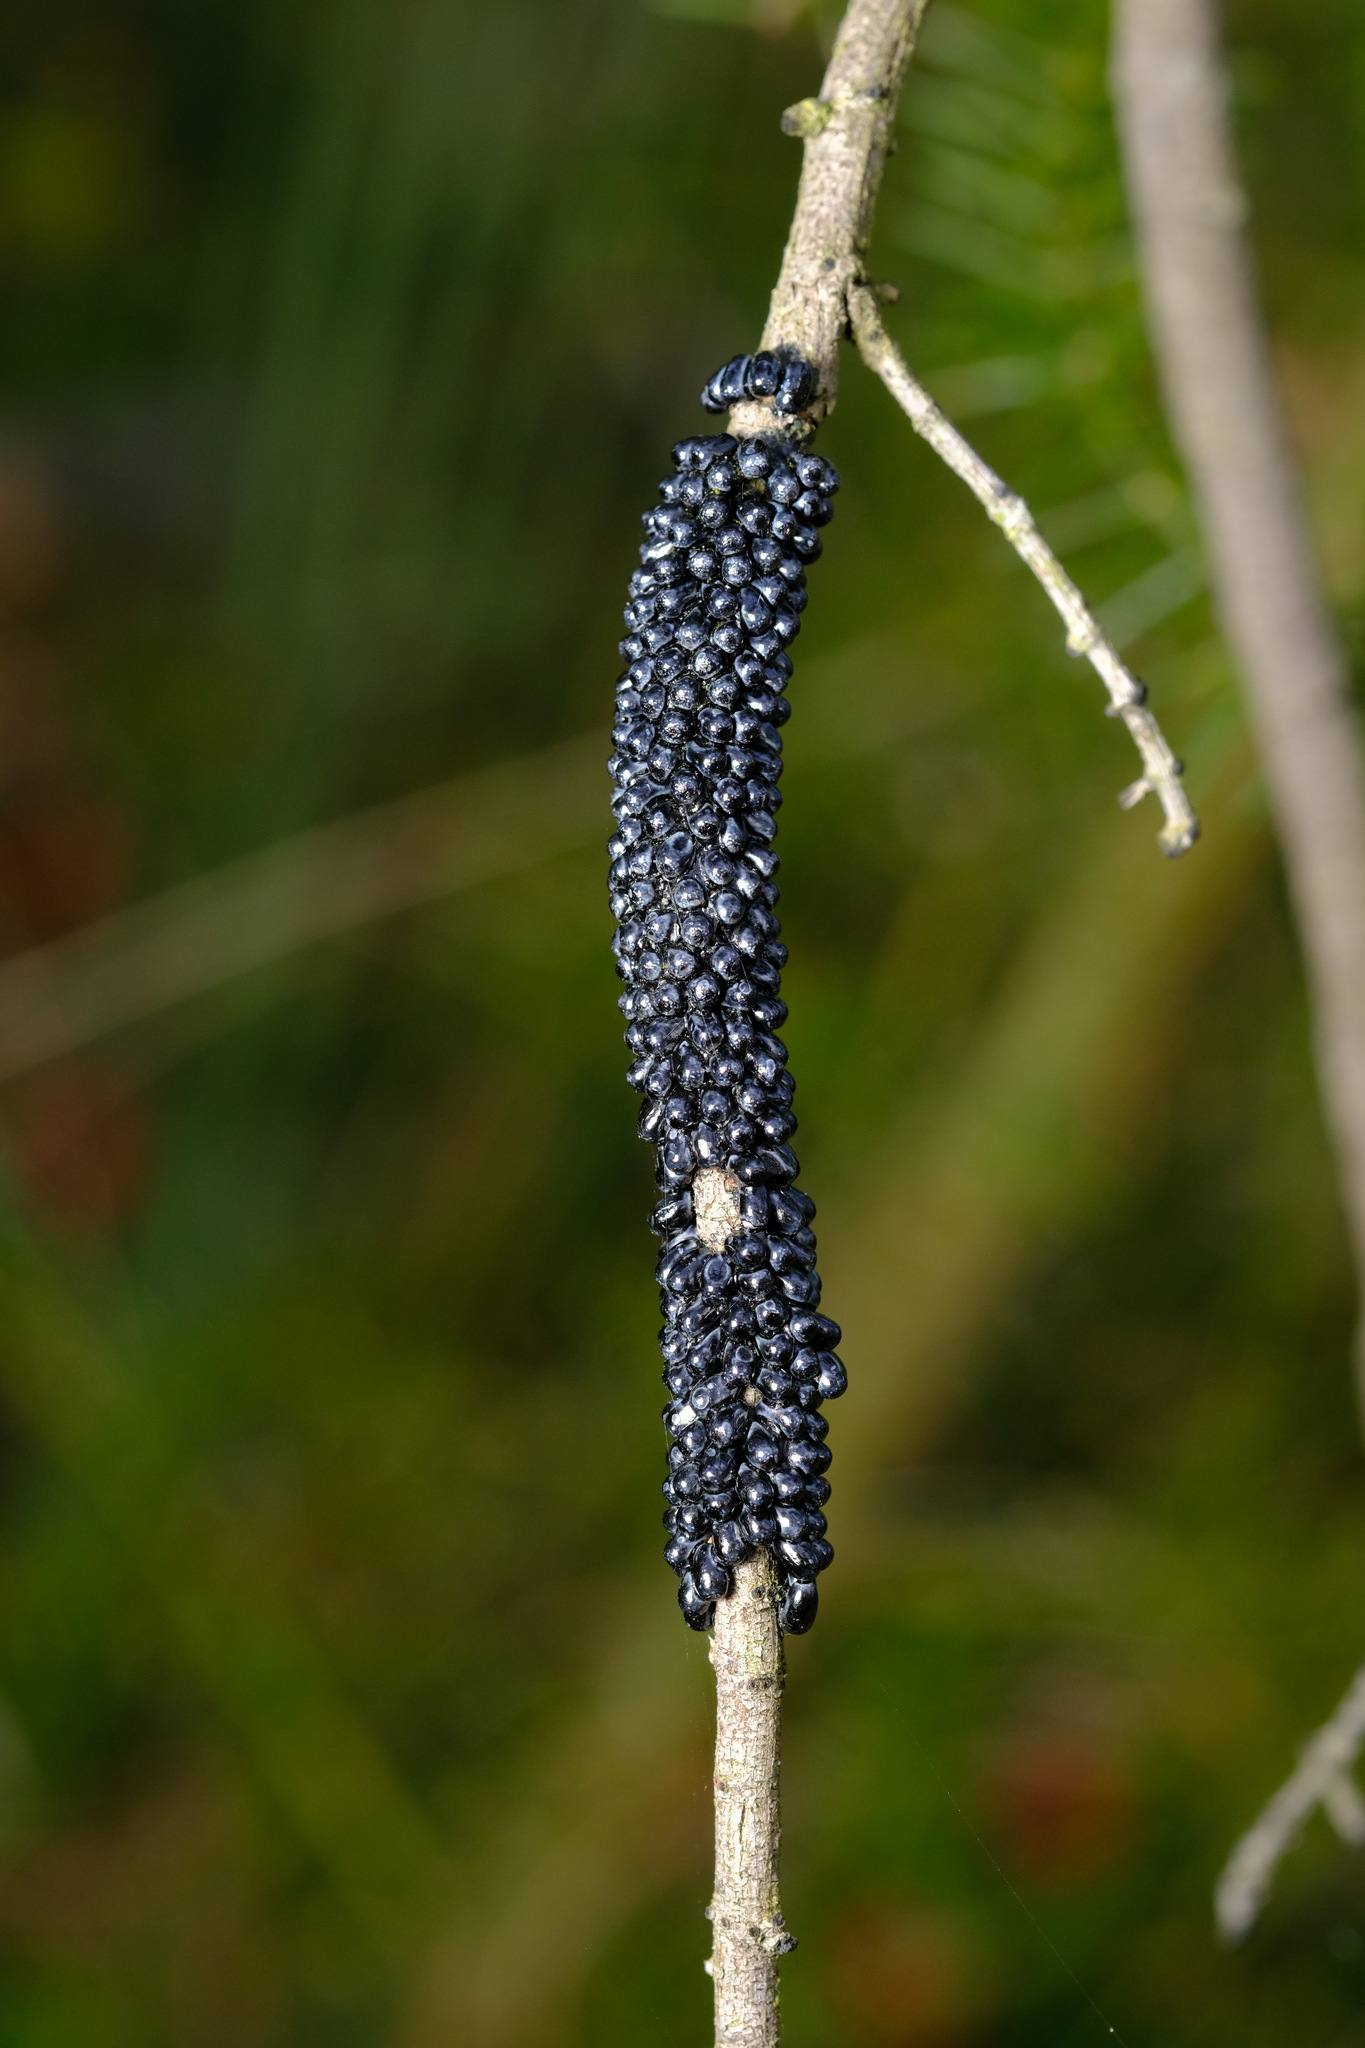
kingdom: Animalia
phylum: Arthropoda
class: Insecta
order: Lepidoptera
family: Cossidae
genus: Ptilomacra
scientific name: Ptilomacra senex
